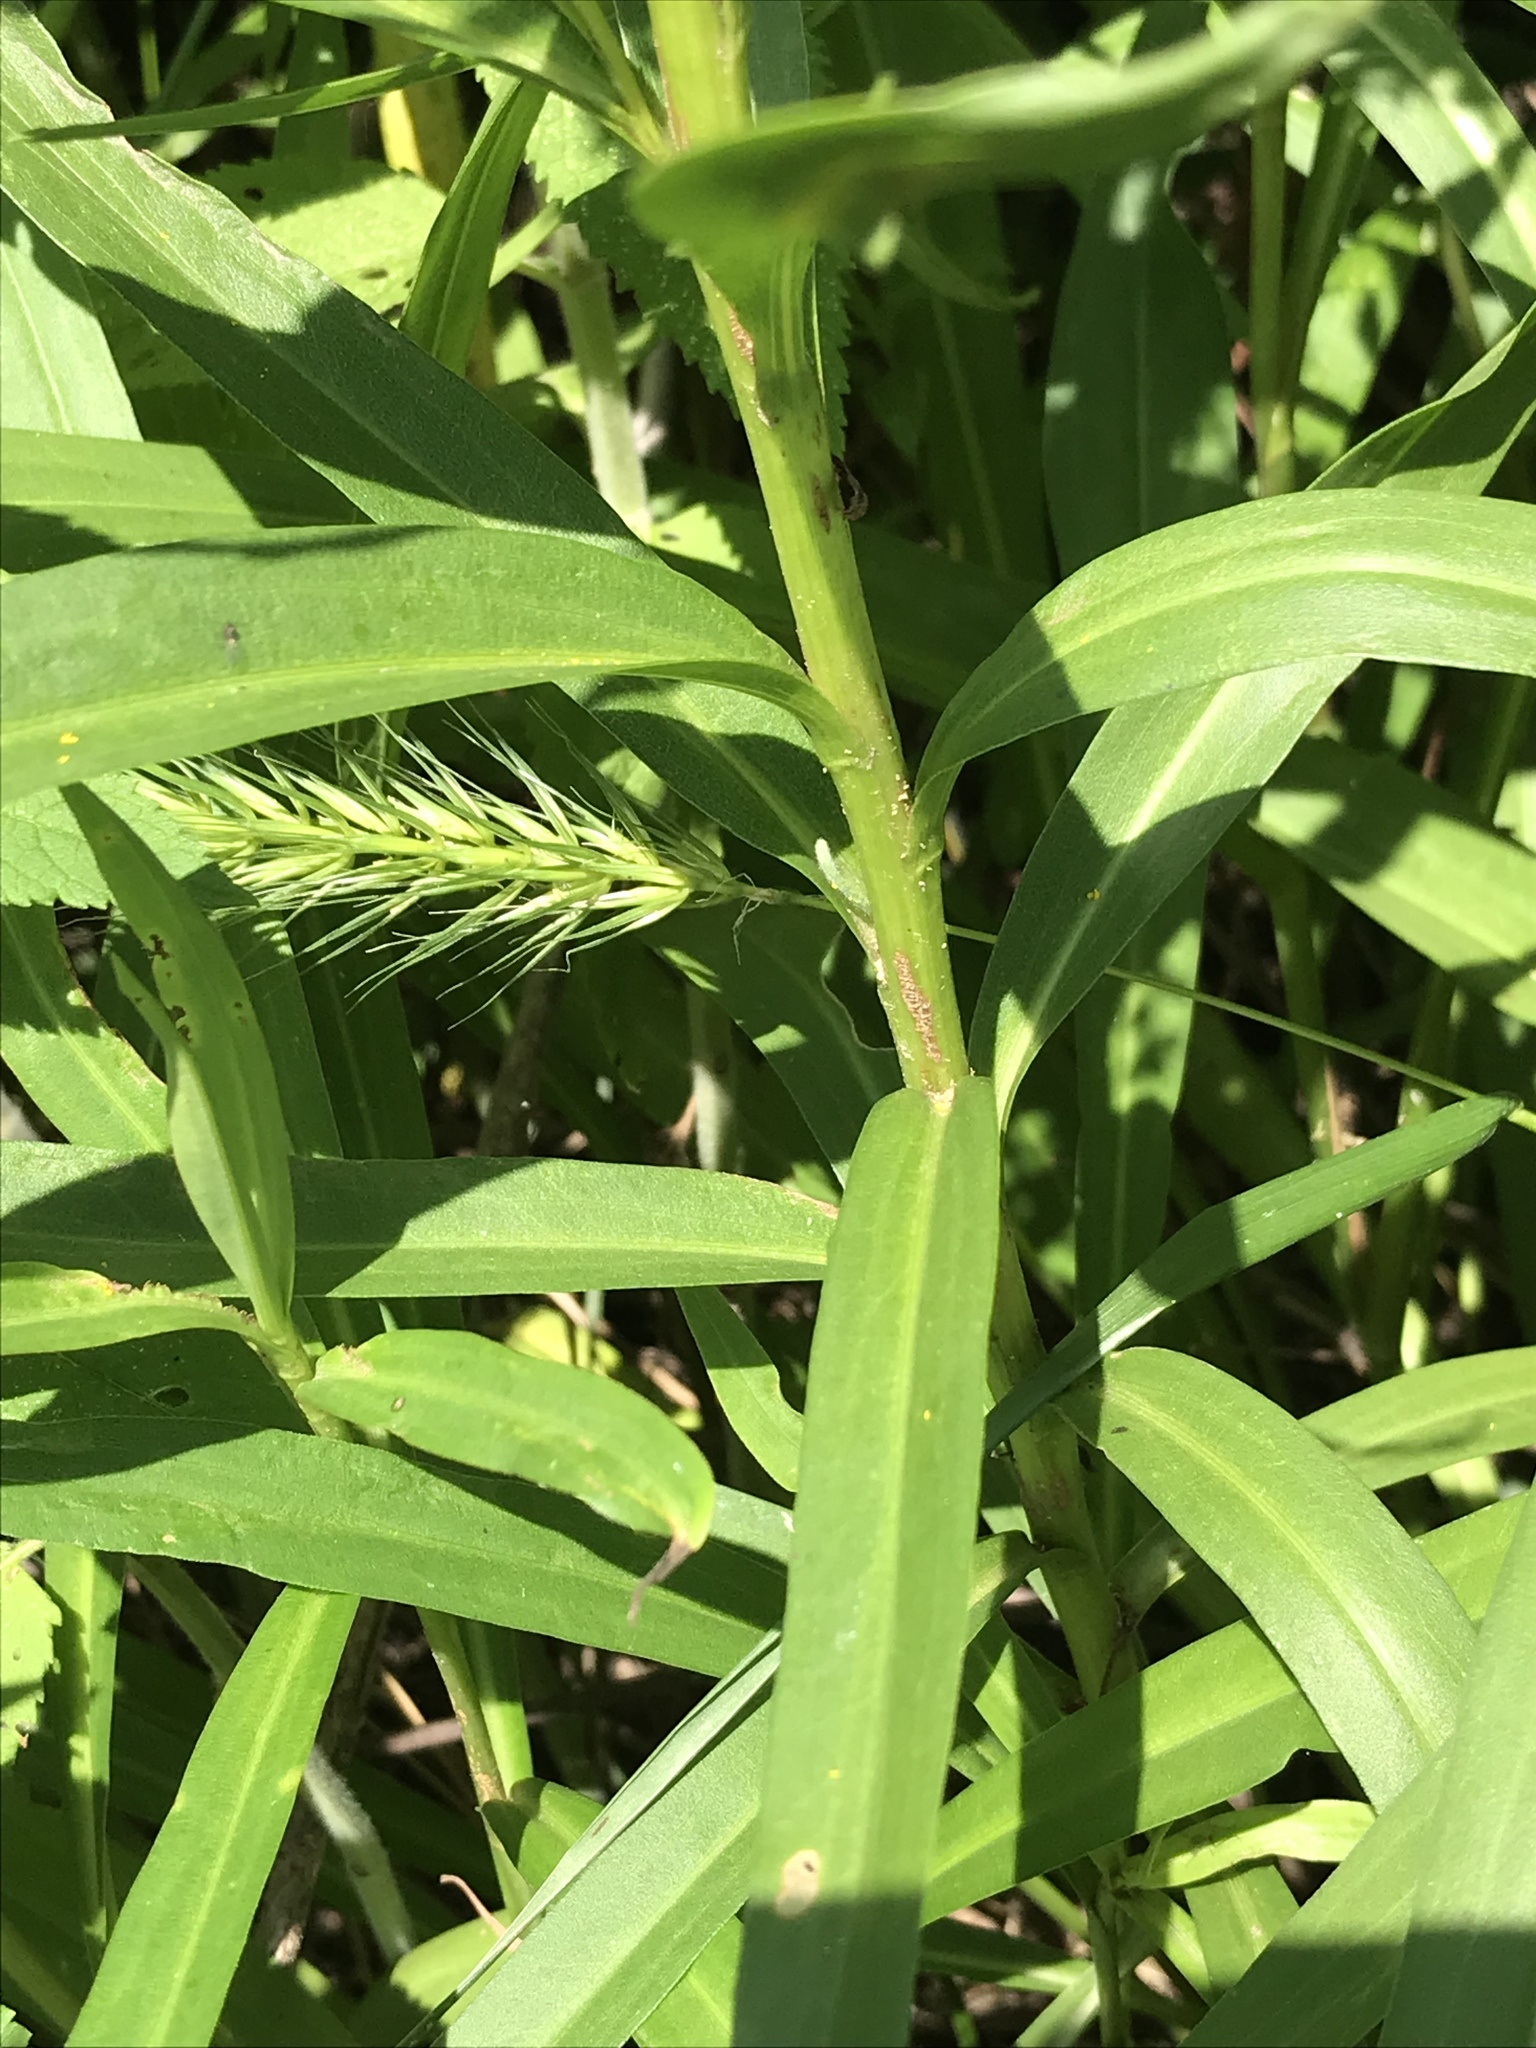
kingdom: Plantae
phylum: Tracheophyta
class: Magnoliopsida
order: Asterales
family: Asteraceae
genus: Solidago
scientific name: Solidago mexicana
